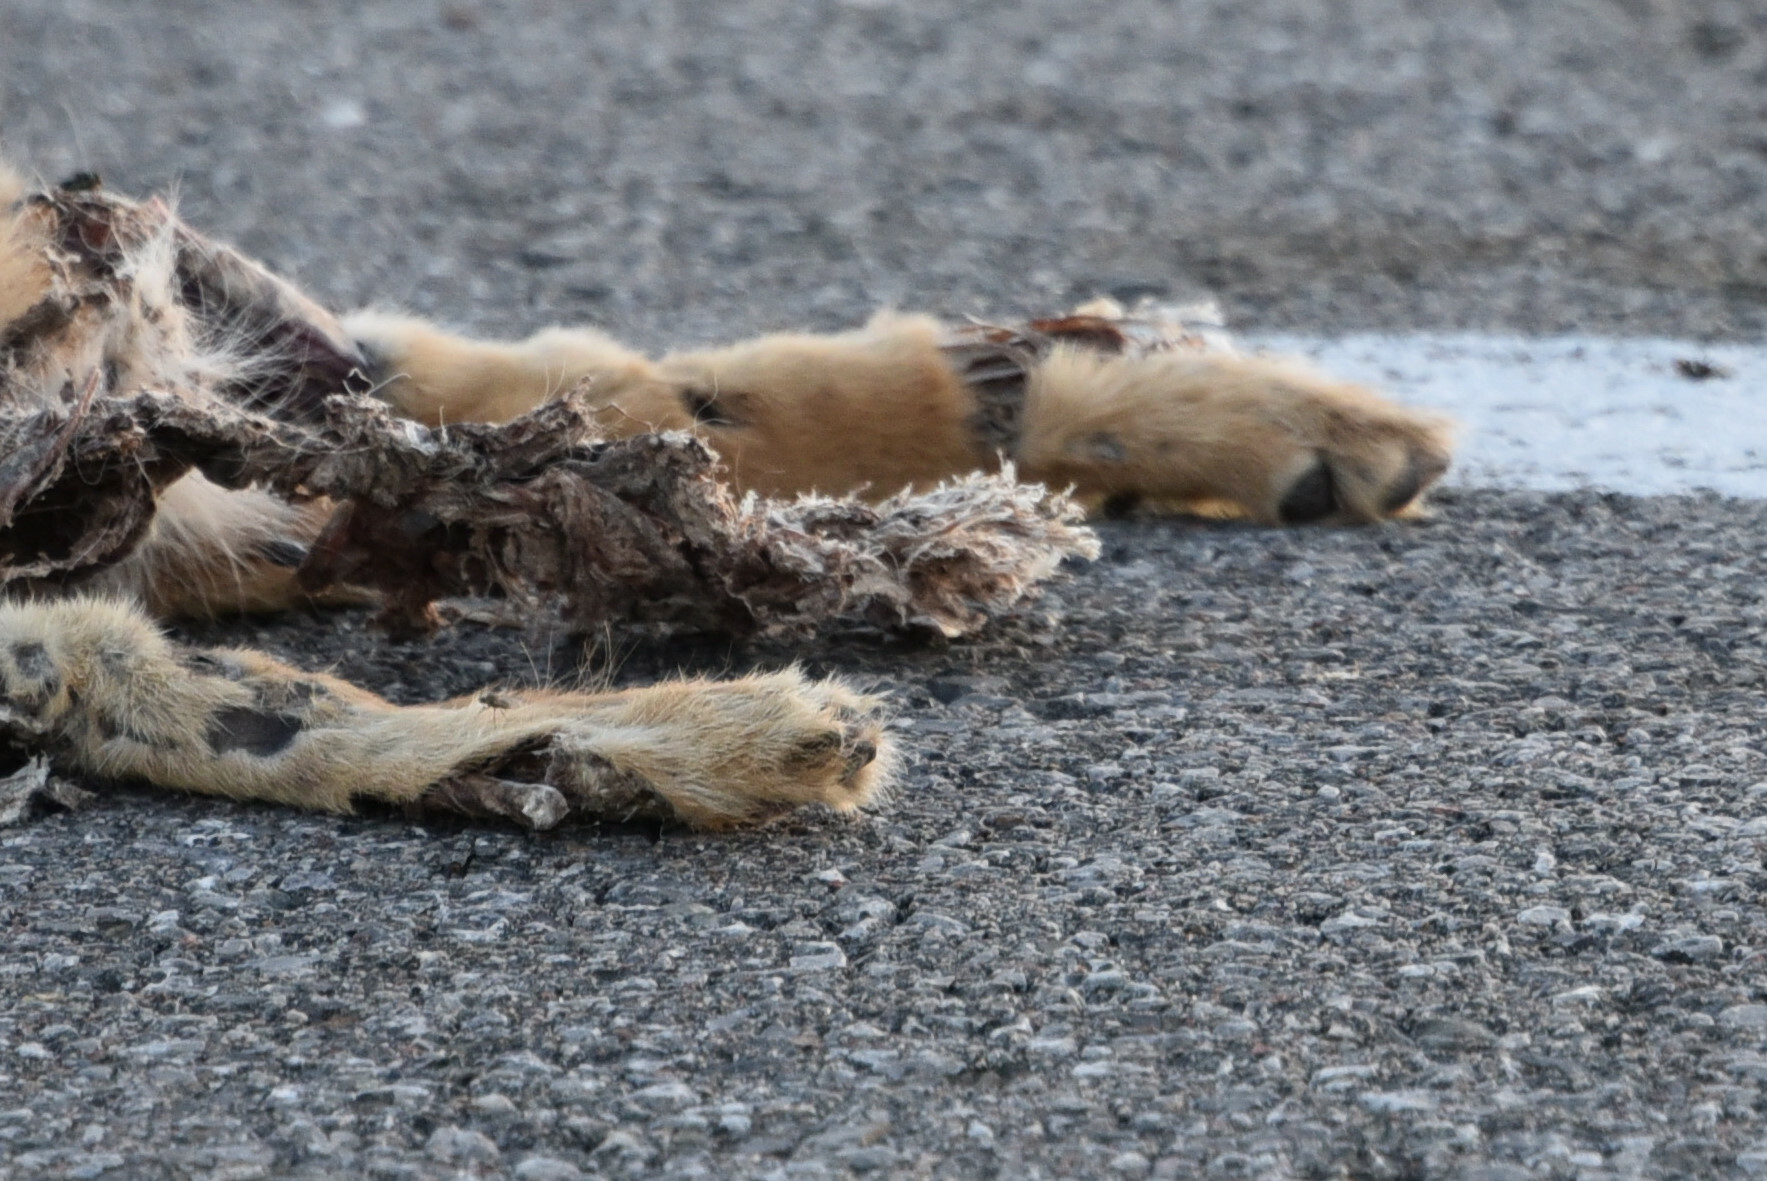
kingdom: Animalia
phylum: Chordata
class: Mammalia
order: Carnivora
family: Canidae
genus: Canis
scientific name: Canis latrans
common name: Coyote
